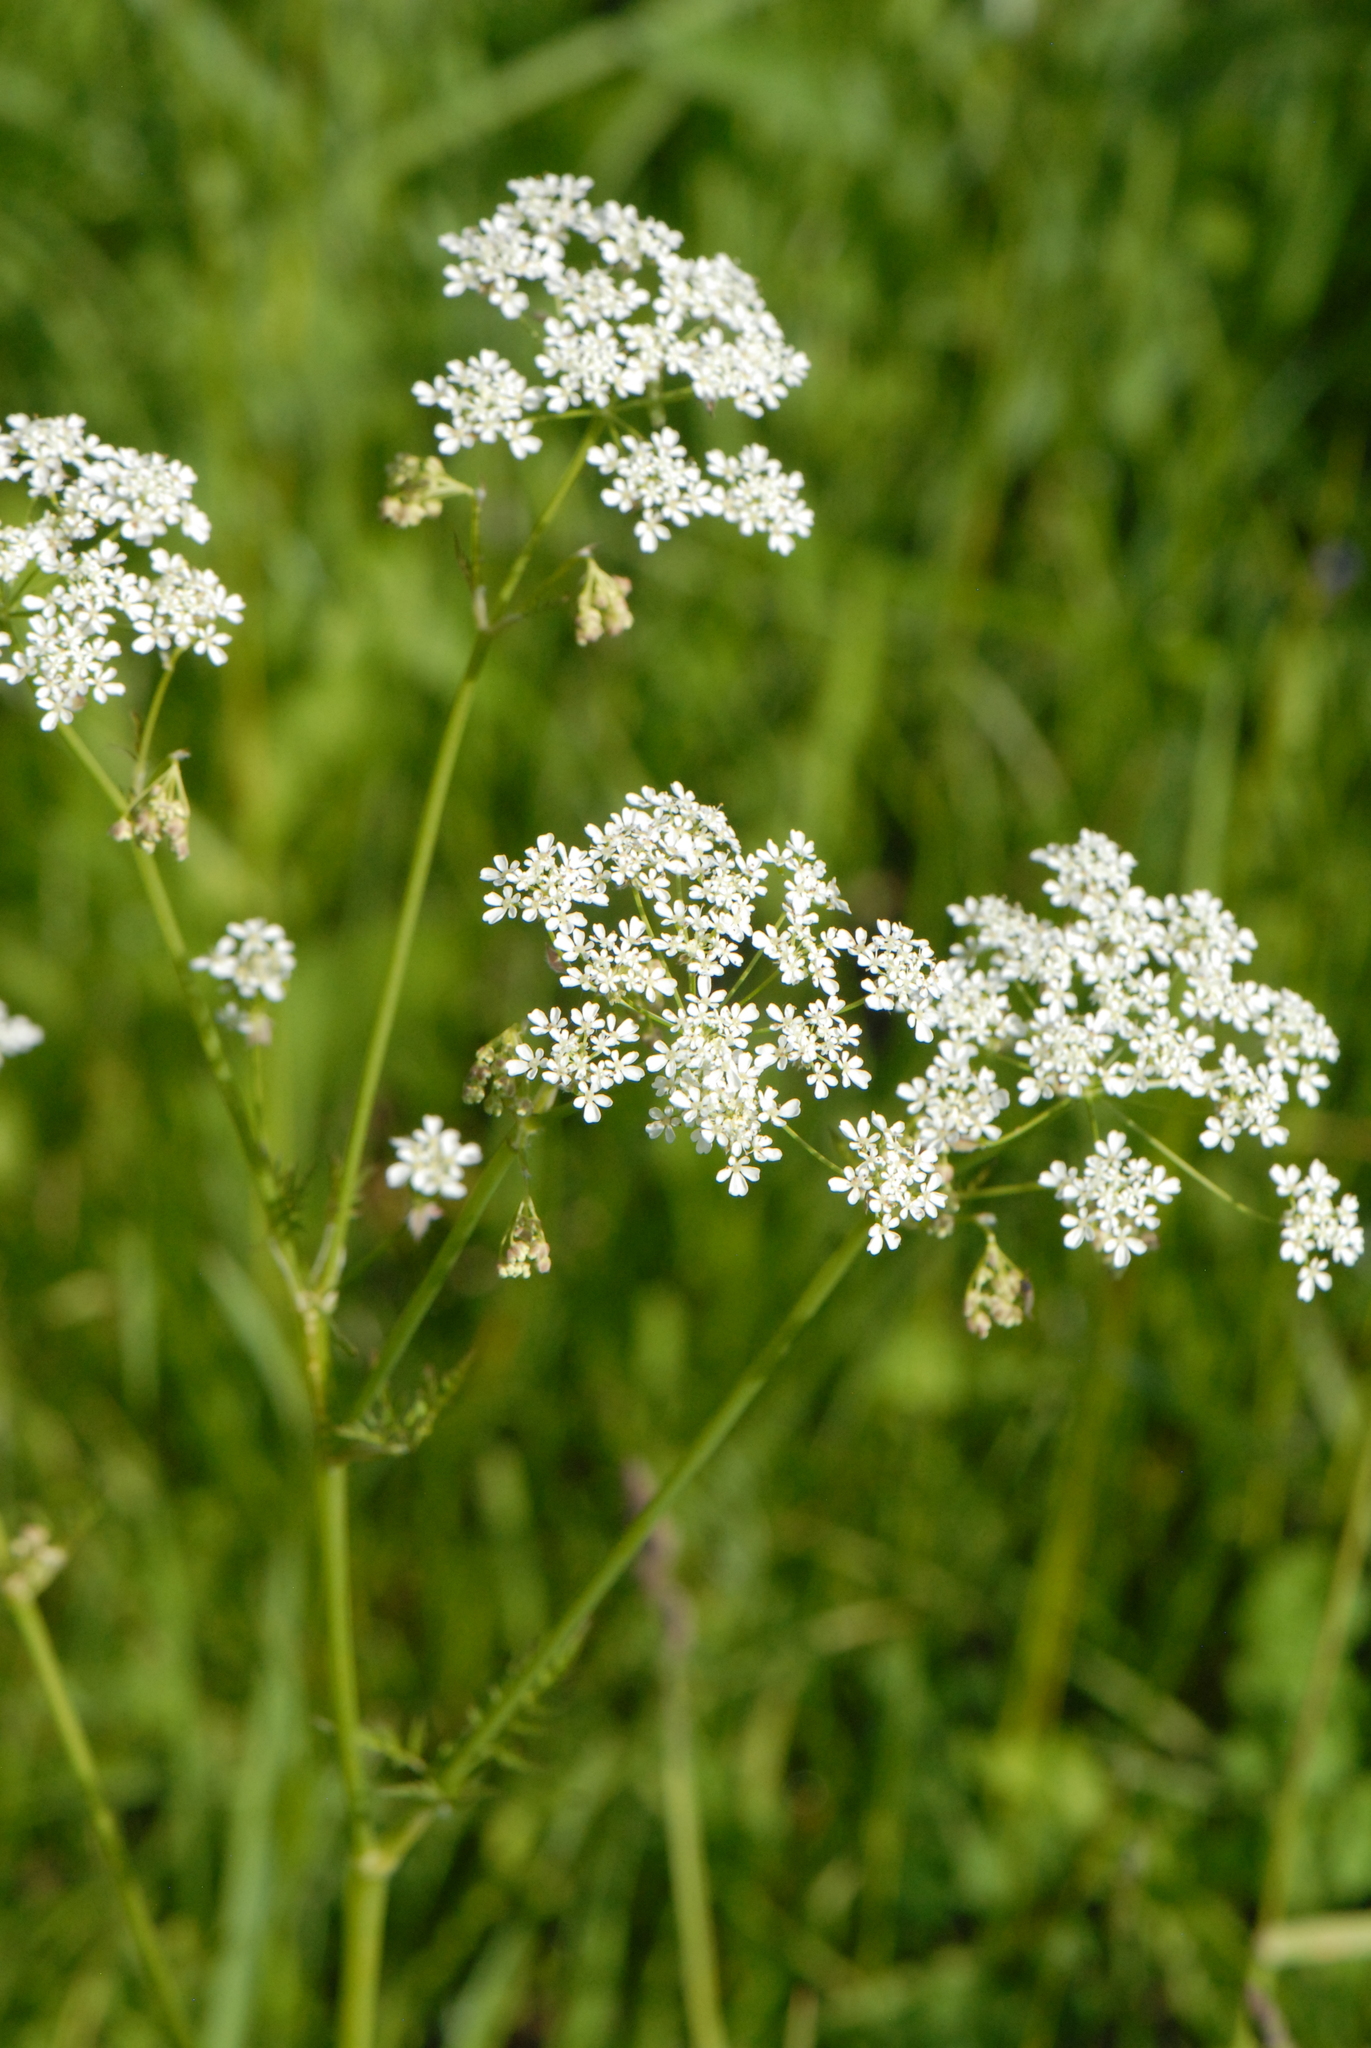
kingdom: Plantae
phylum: Tracheophyta
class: Magnoliopsida
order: Apiales
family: Apiaceae
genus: Anthriscus
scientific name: Anthriscus sylvestris
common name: Cow parsley
